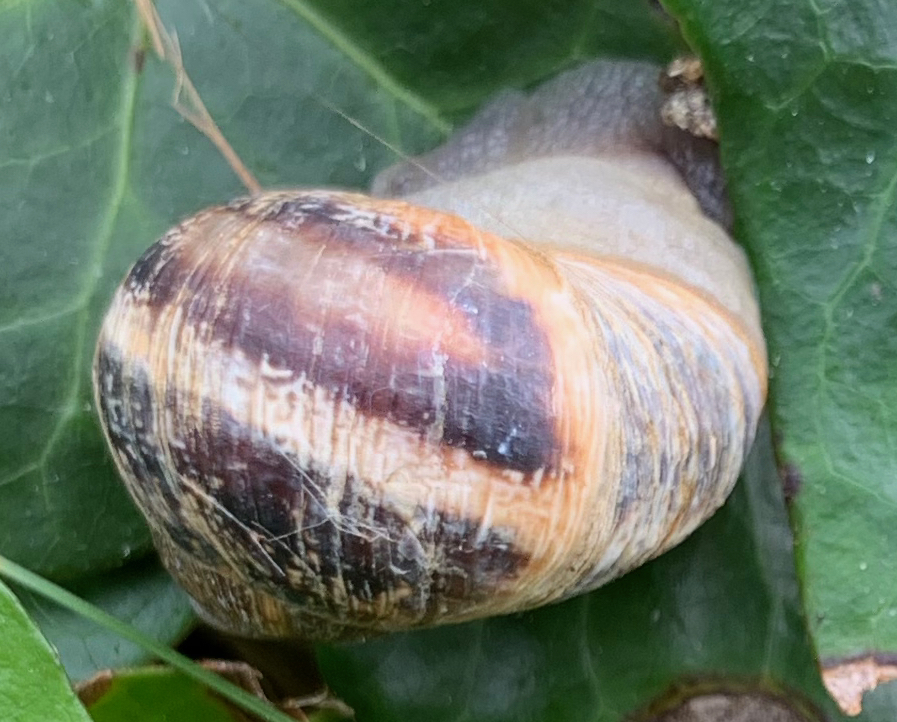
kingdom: Animalia
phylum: Mollusca
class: Gastropoda
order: Stylommatophora
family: Helicidae
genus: Cornu
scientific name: Cornu aspersum
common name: Brown garden snail
